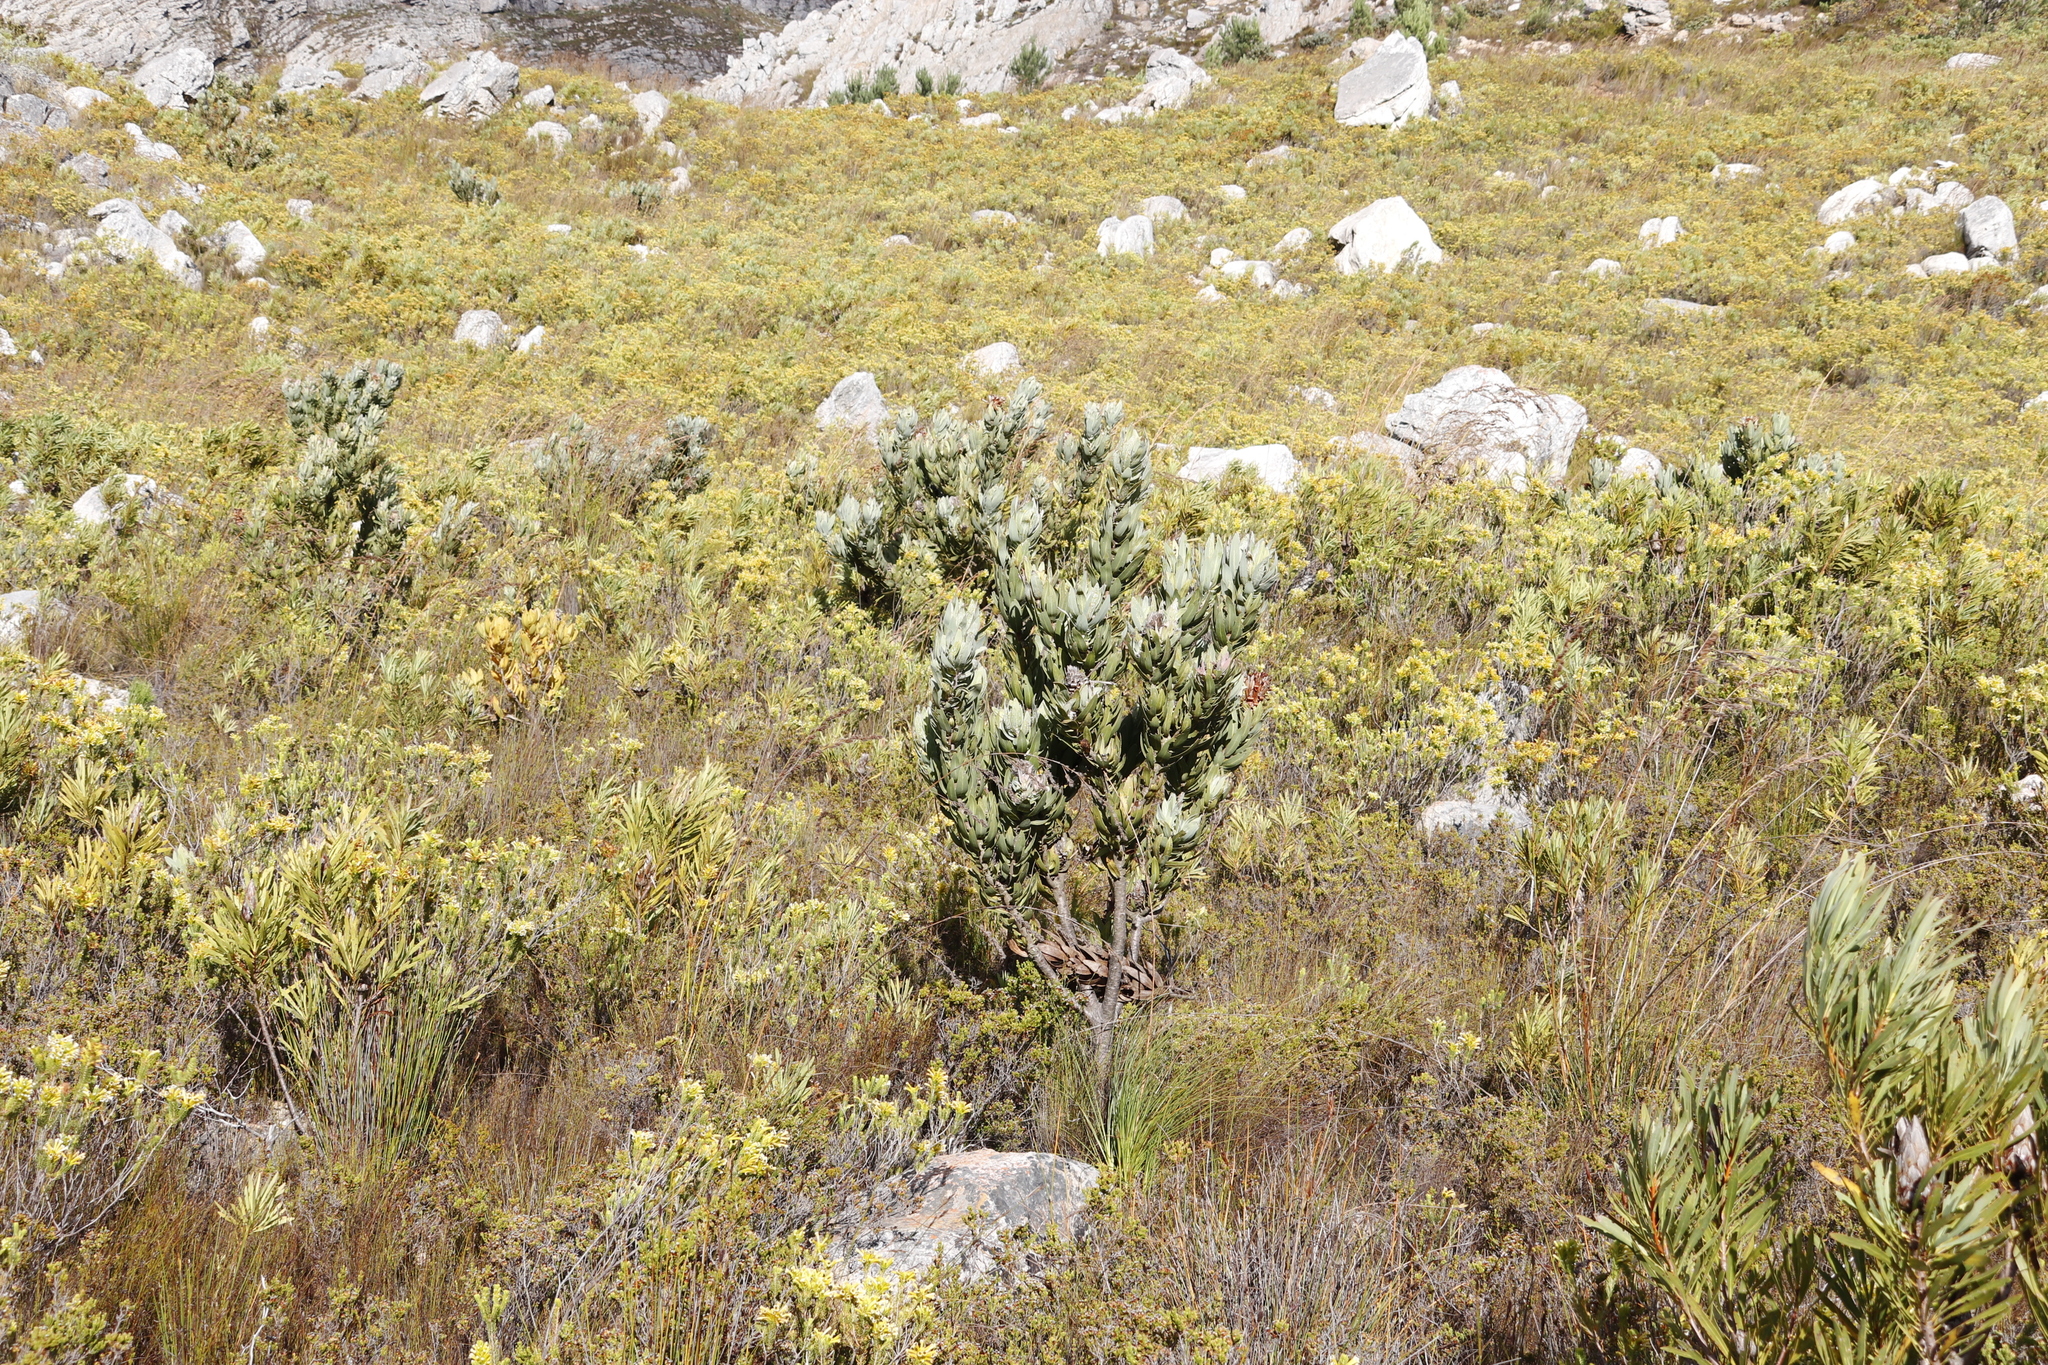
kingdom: Plantae
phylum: Tracheophyta
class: Magnoliopsida
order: Proteales
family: Proteaceae
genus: Protea
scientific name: Protea laurifolia
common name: Grey-leaf sugarbsh
